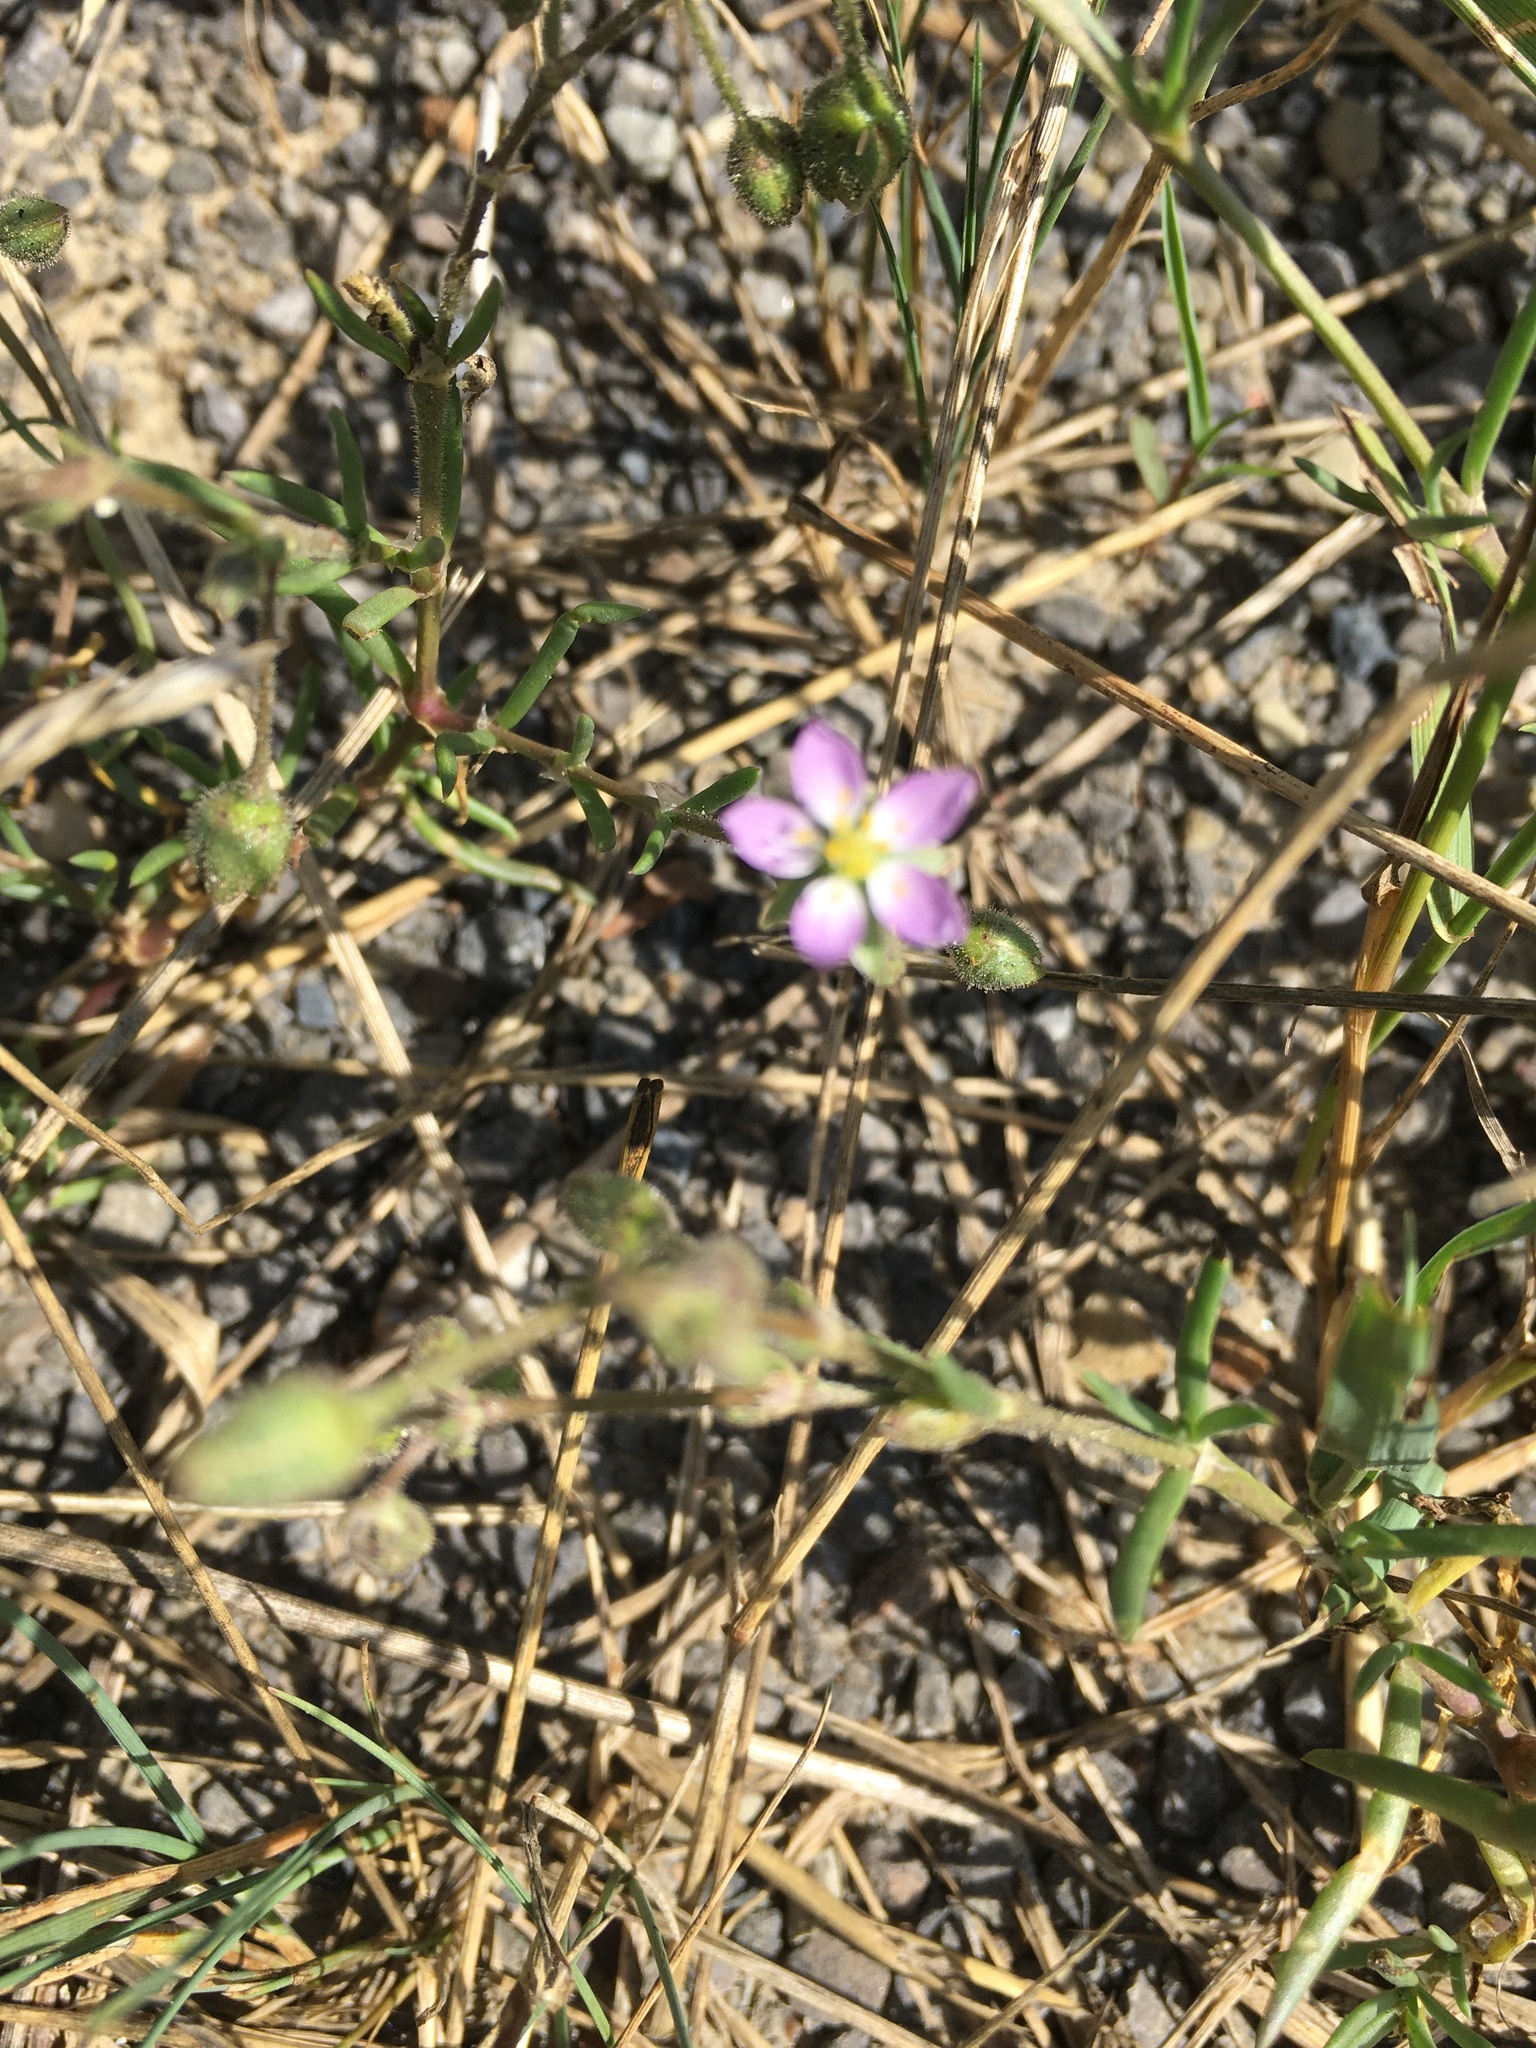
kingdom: Plantae
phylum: Tracheophyta
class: Magnoliopsida
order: Caryophyllales
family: Caryophyllaceae
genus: Spergularia
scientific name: Spergularia rubra
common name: Red sand-spurrey
